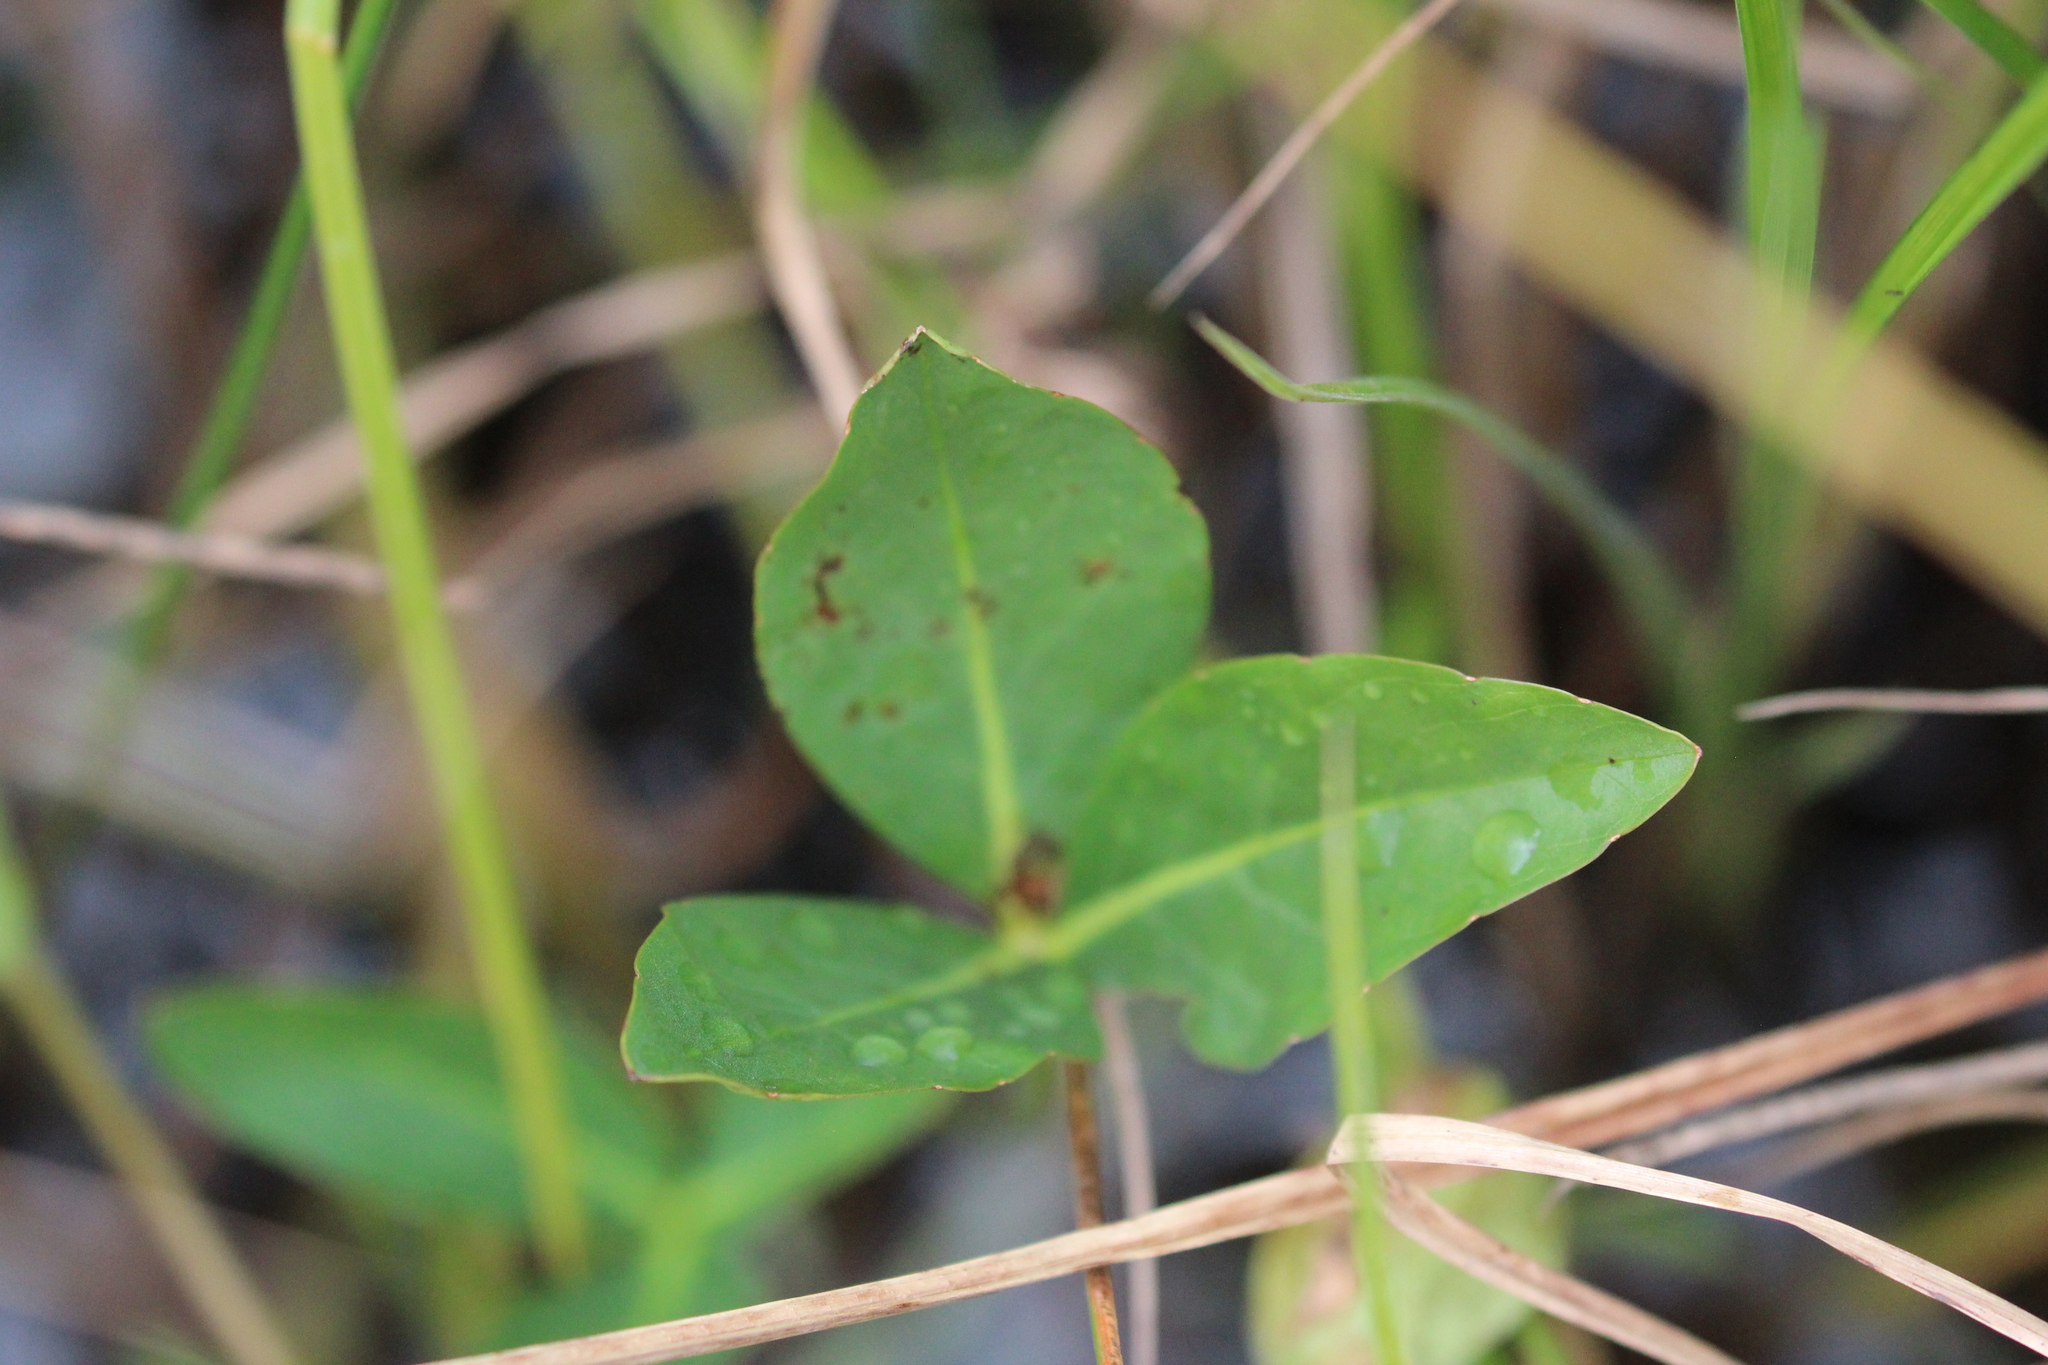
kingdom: Plantae
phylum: Tracheophyta
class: Magnoliopsida
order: Asterales
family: Menyanthaceae
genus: Menyanthes
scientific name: Menyanthes trifoliata
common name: Bogbean
